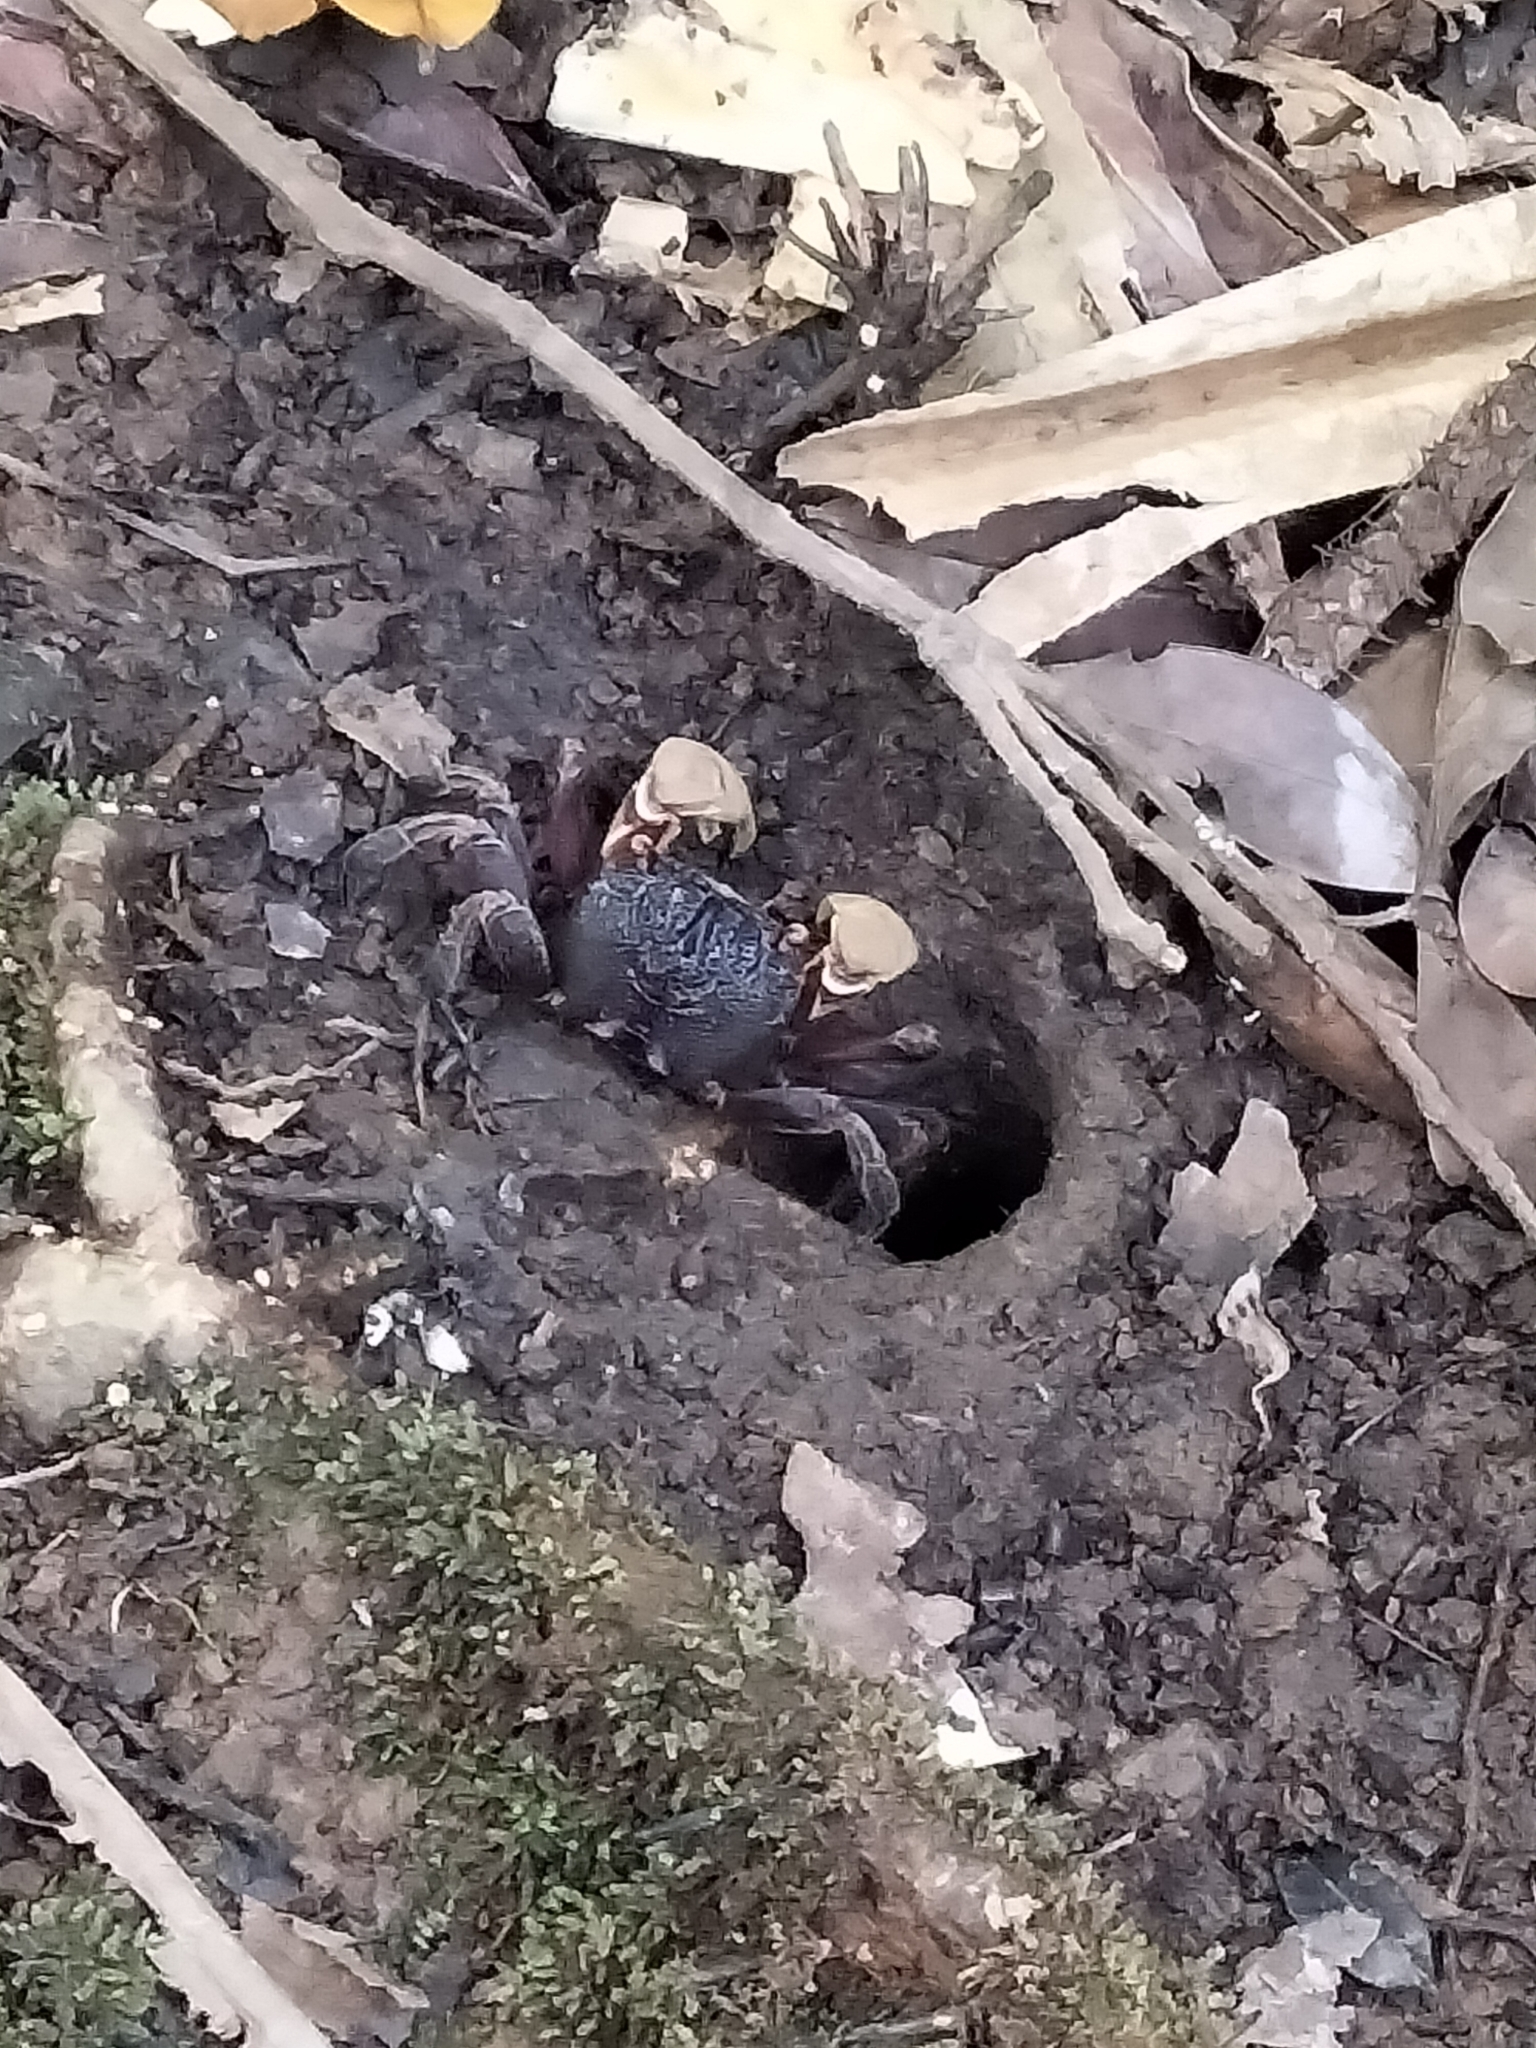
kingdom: Animalia
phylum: Arthropoda
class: Malacostraca
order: Decapoda
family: Sesarmidae
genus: Tiomanium
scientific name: Tiomanium indicum
